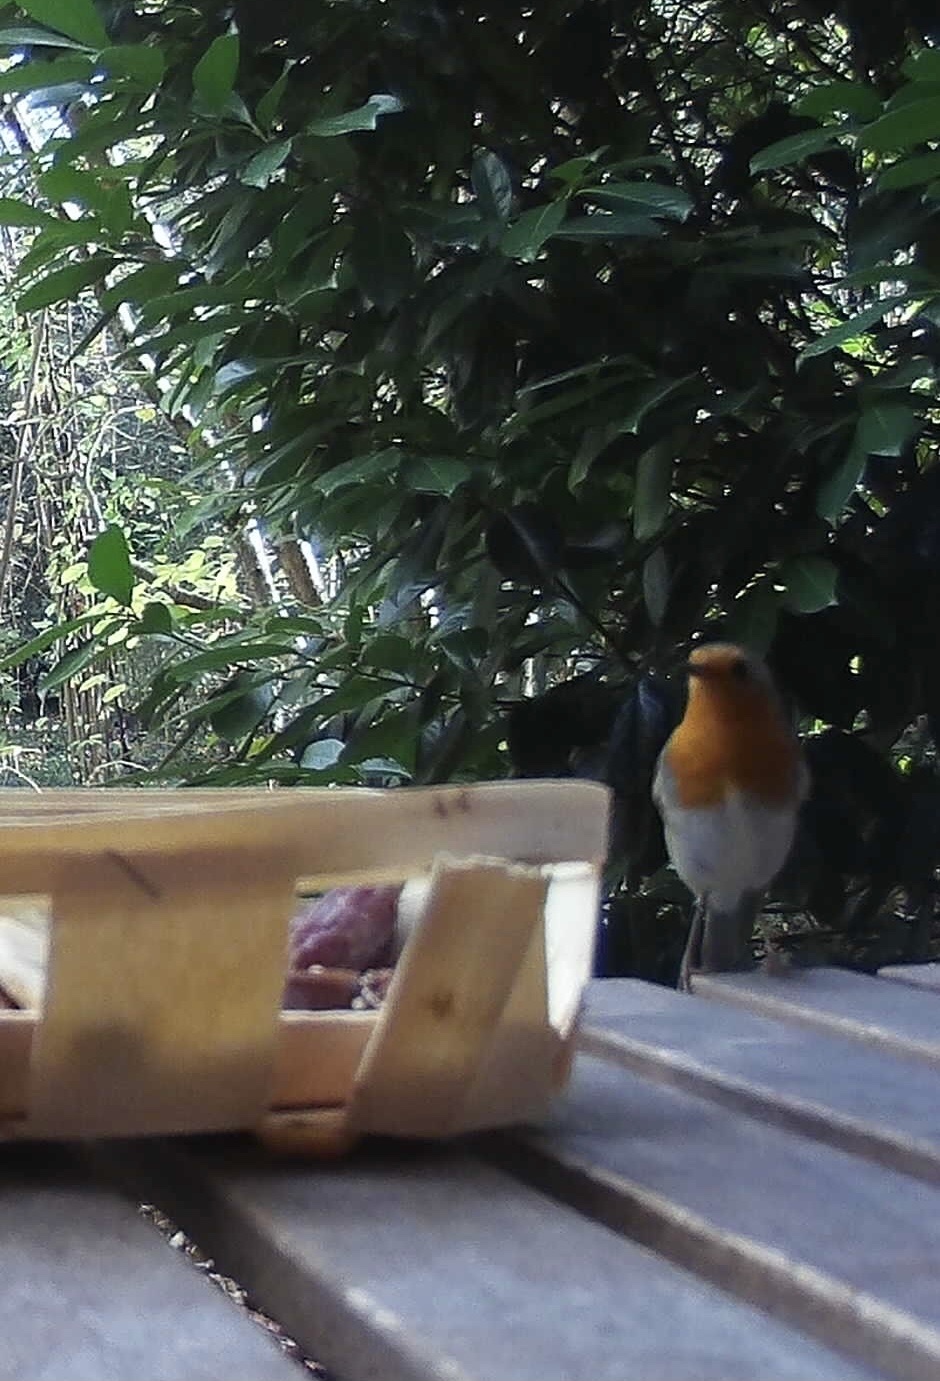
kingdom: Animalia
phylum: Chordata
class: Aves
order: Passeriformes
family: Muscicapidae
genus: Erithacus
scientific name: Erithacus rubecula
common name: European robin
